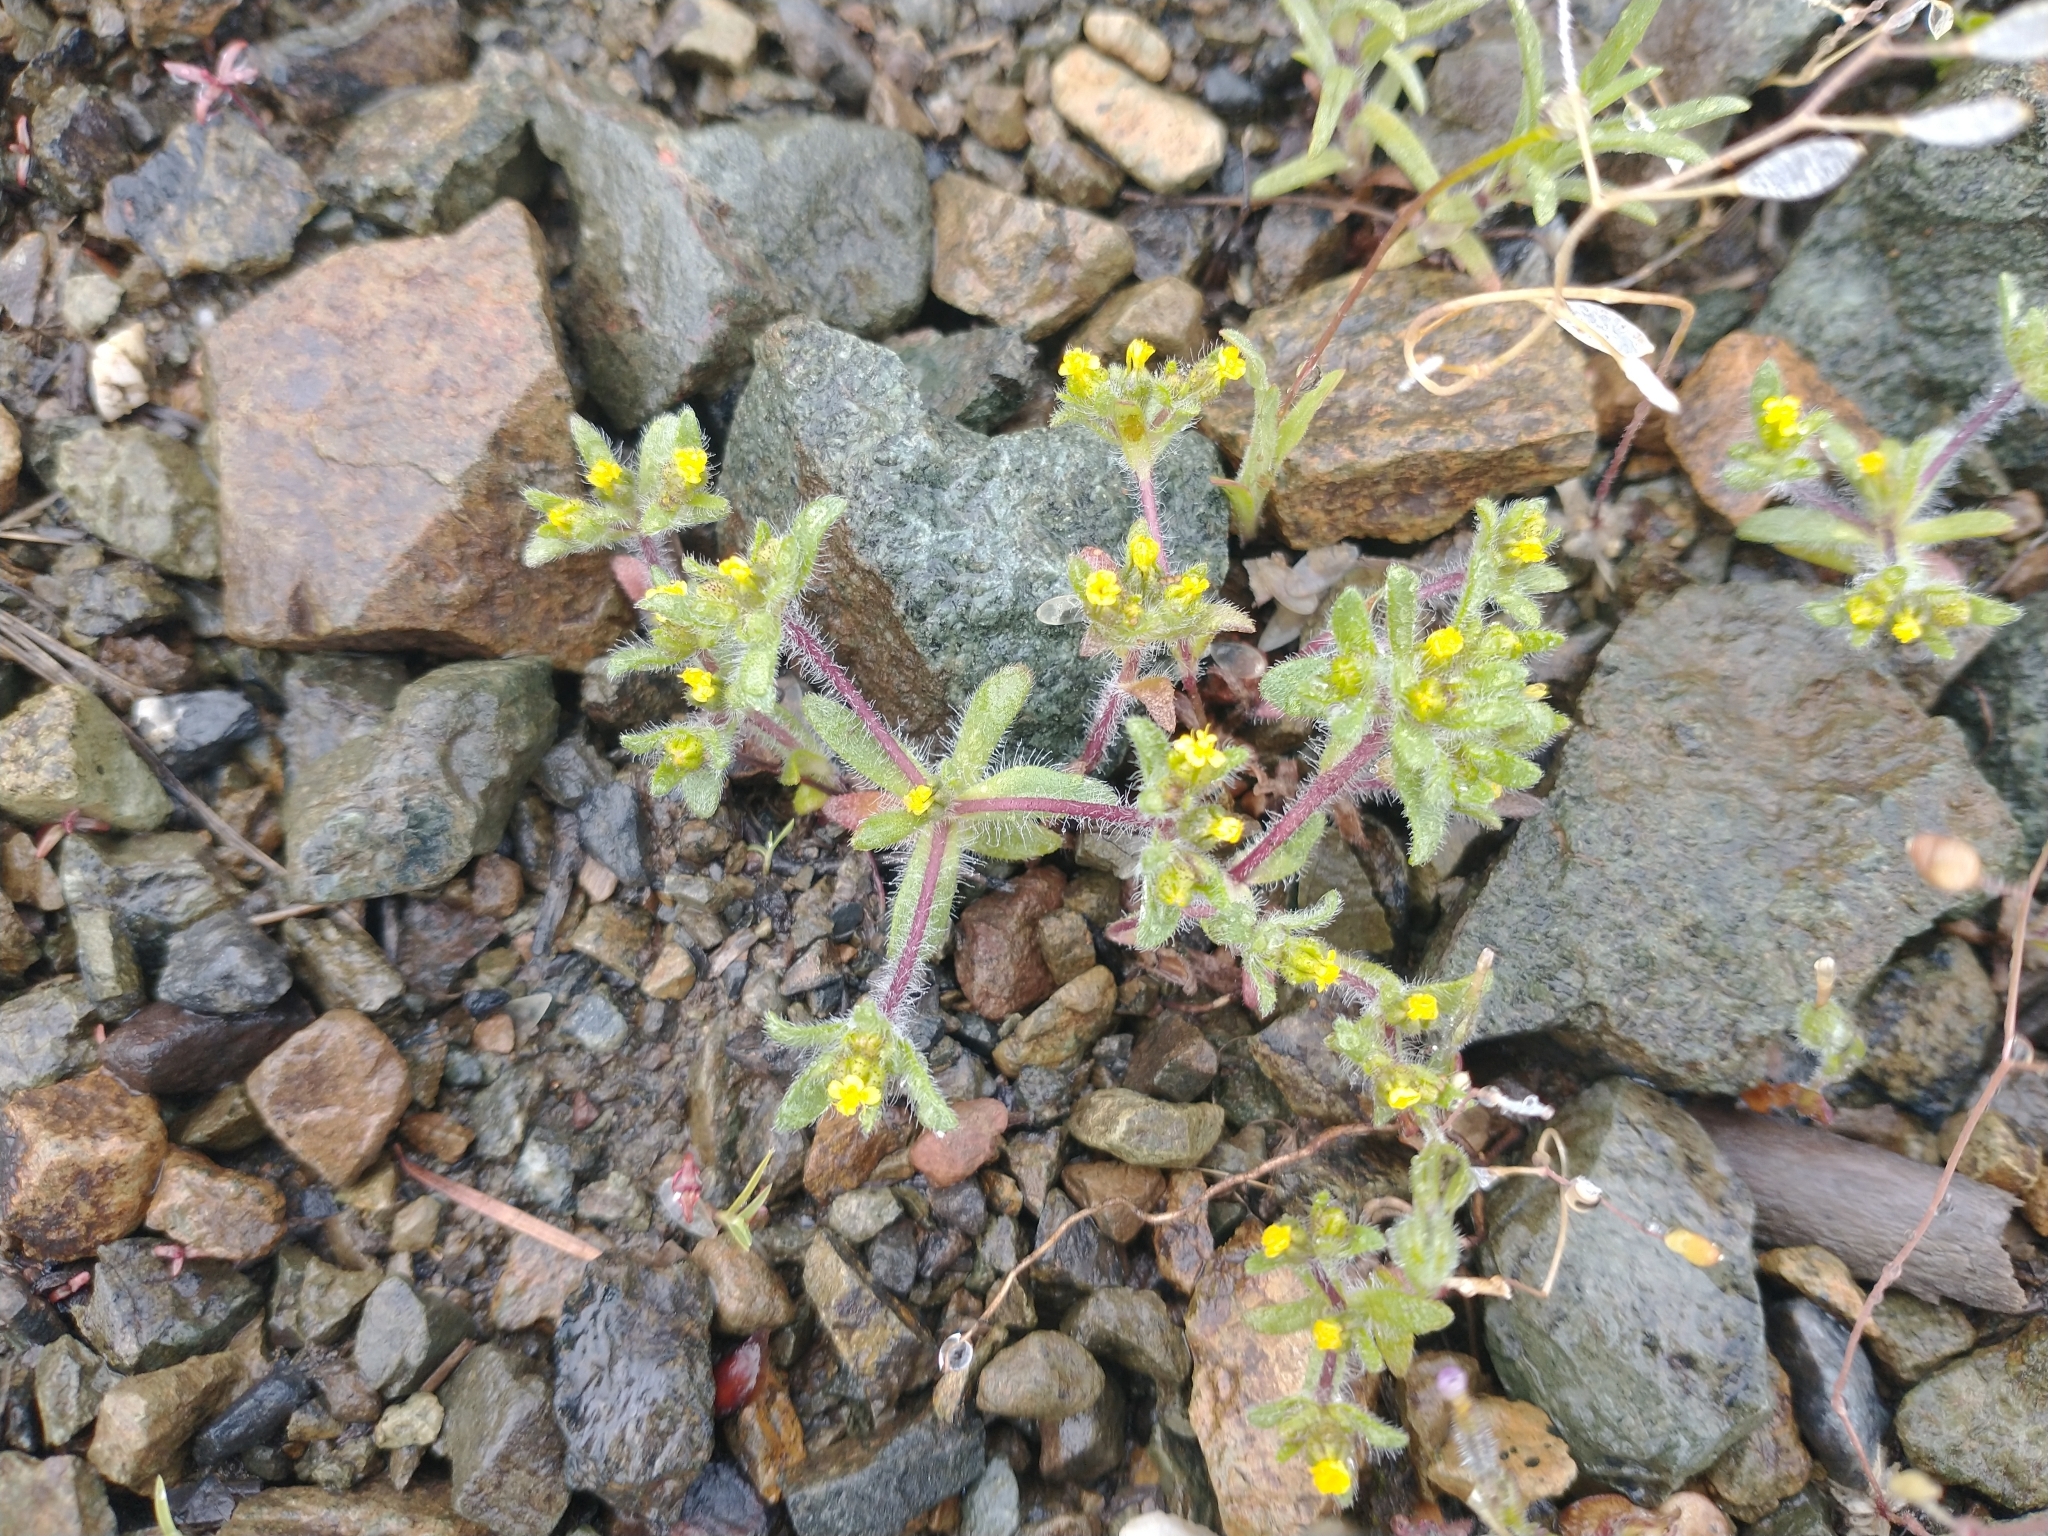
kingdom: Plantae
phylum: Tracheophyta
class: Magnoliopsida
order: Asterales
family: Asteraceae
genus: Hemizonella
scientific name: Hemizonella minima
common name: Opposite-leaved tarweed
